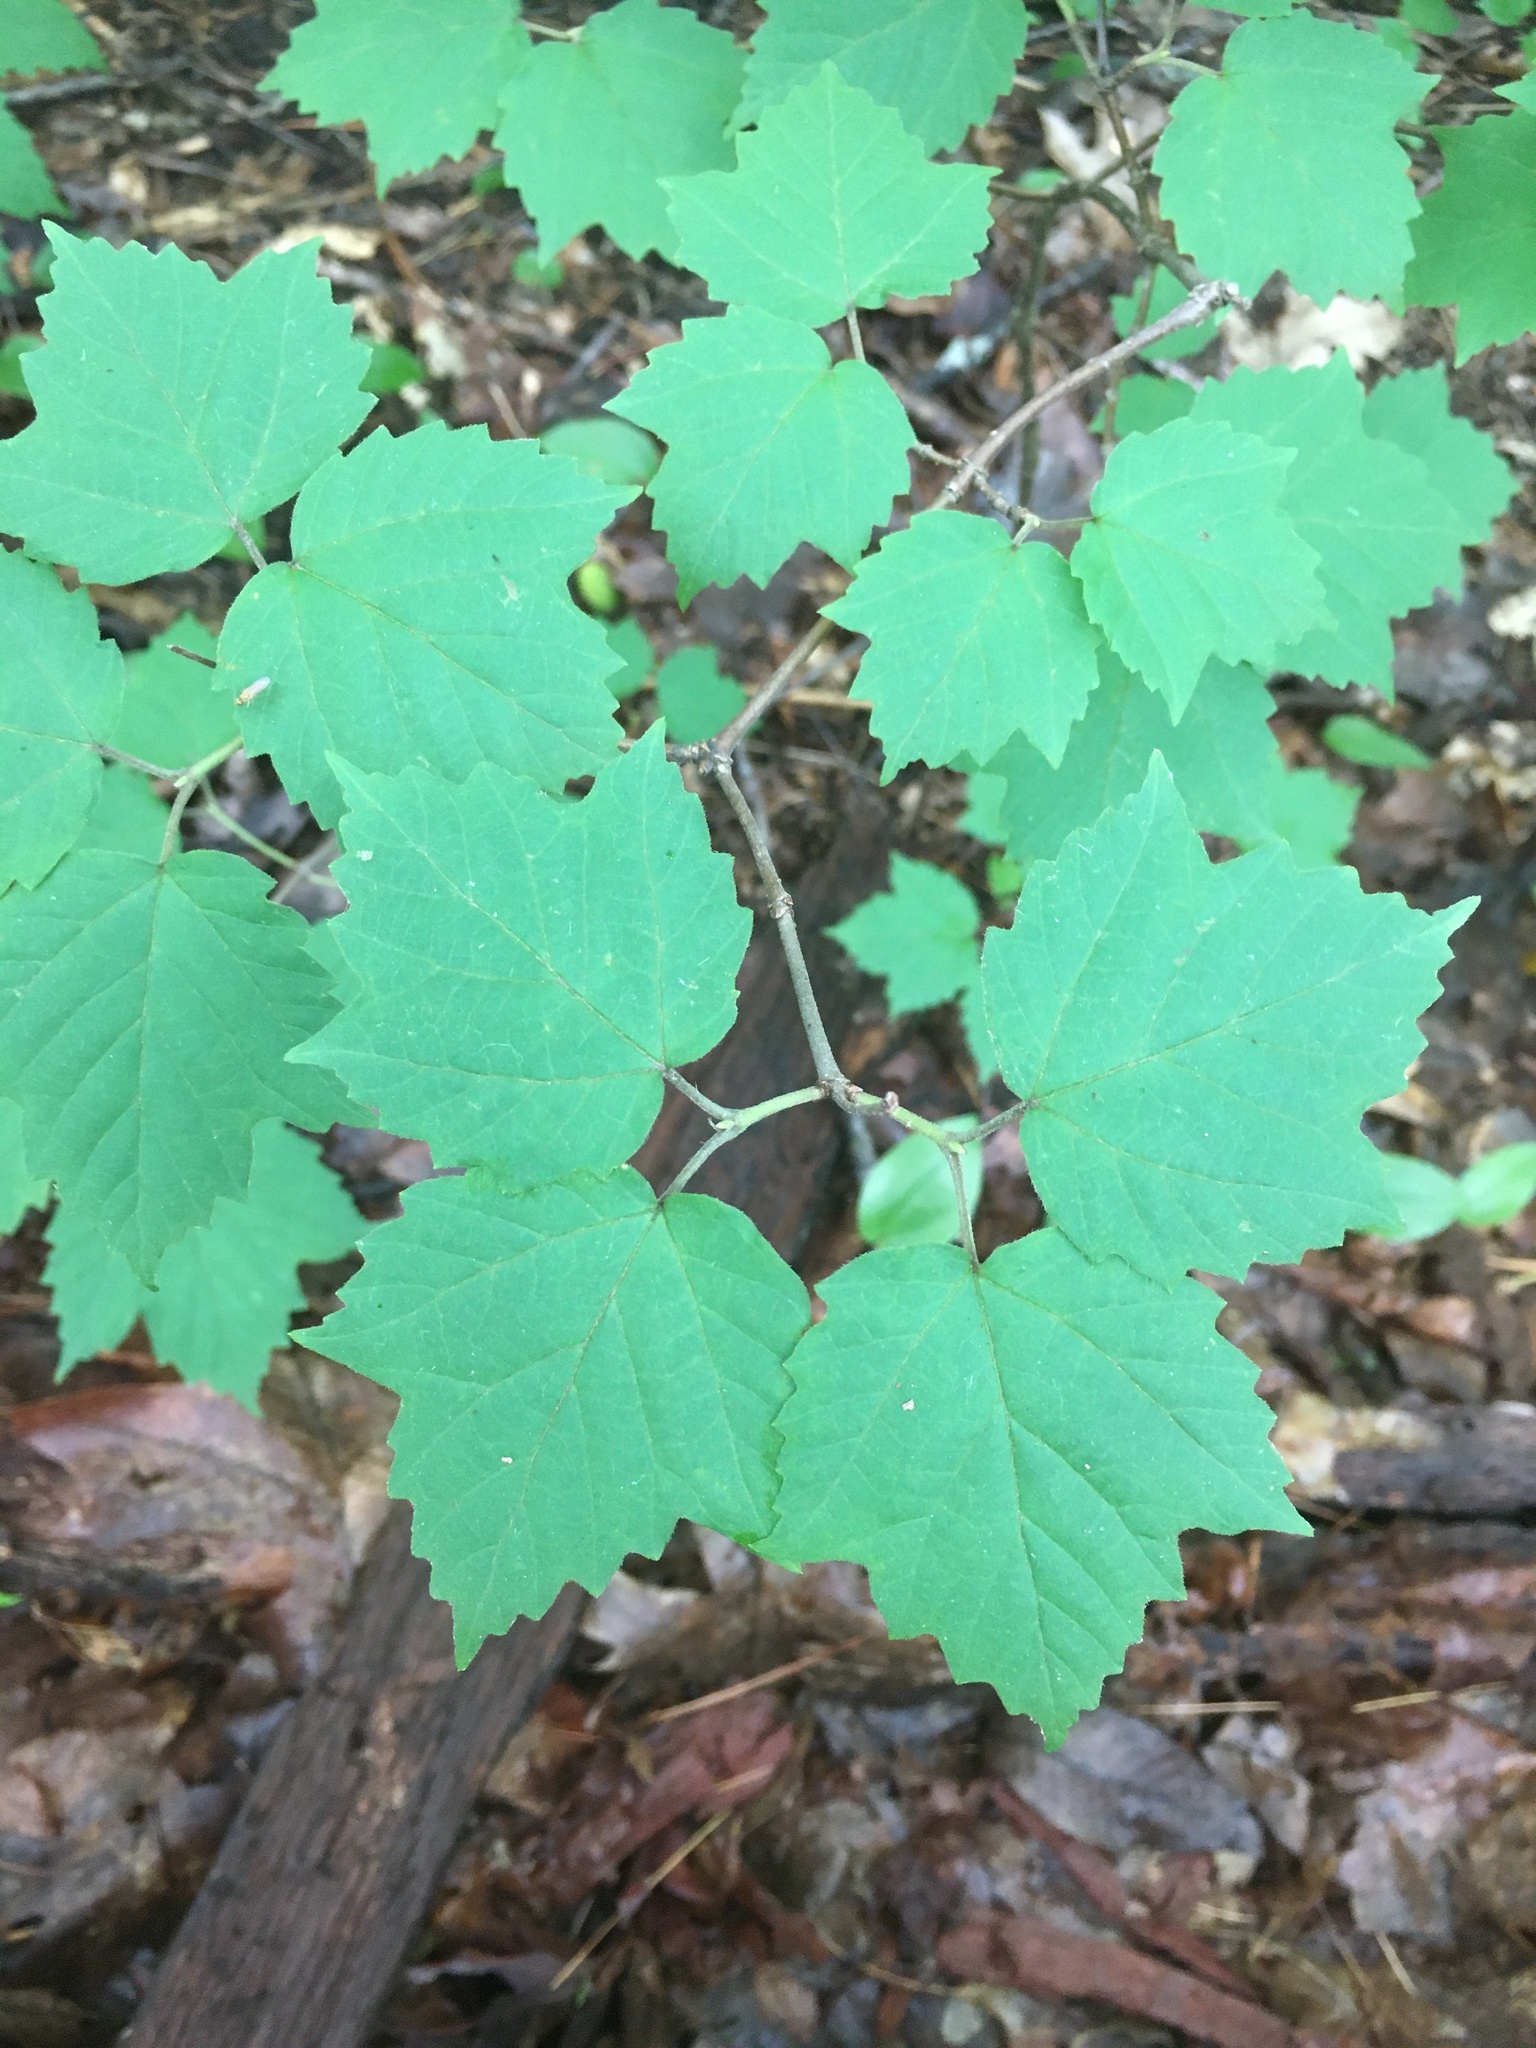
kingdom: Plantae
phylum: Tracheophyta
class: Magnoliopsida
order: Dipsacales
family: Viburnaceae
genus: Viburnum
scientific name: Viburnum acerifolium
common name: Dockmackie
